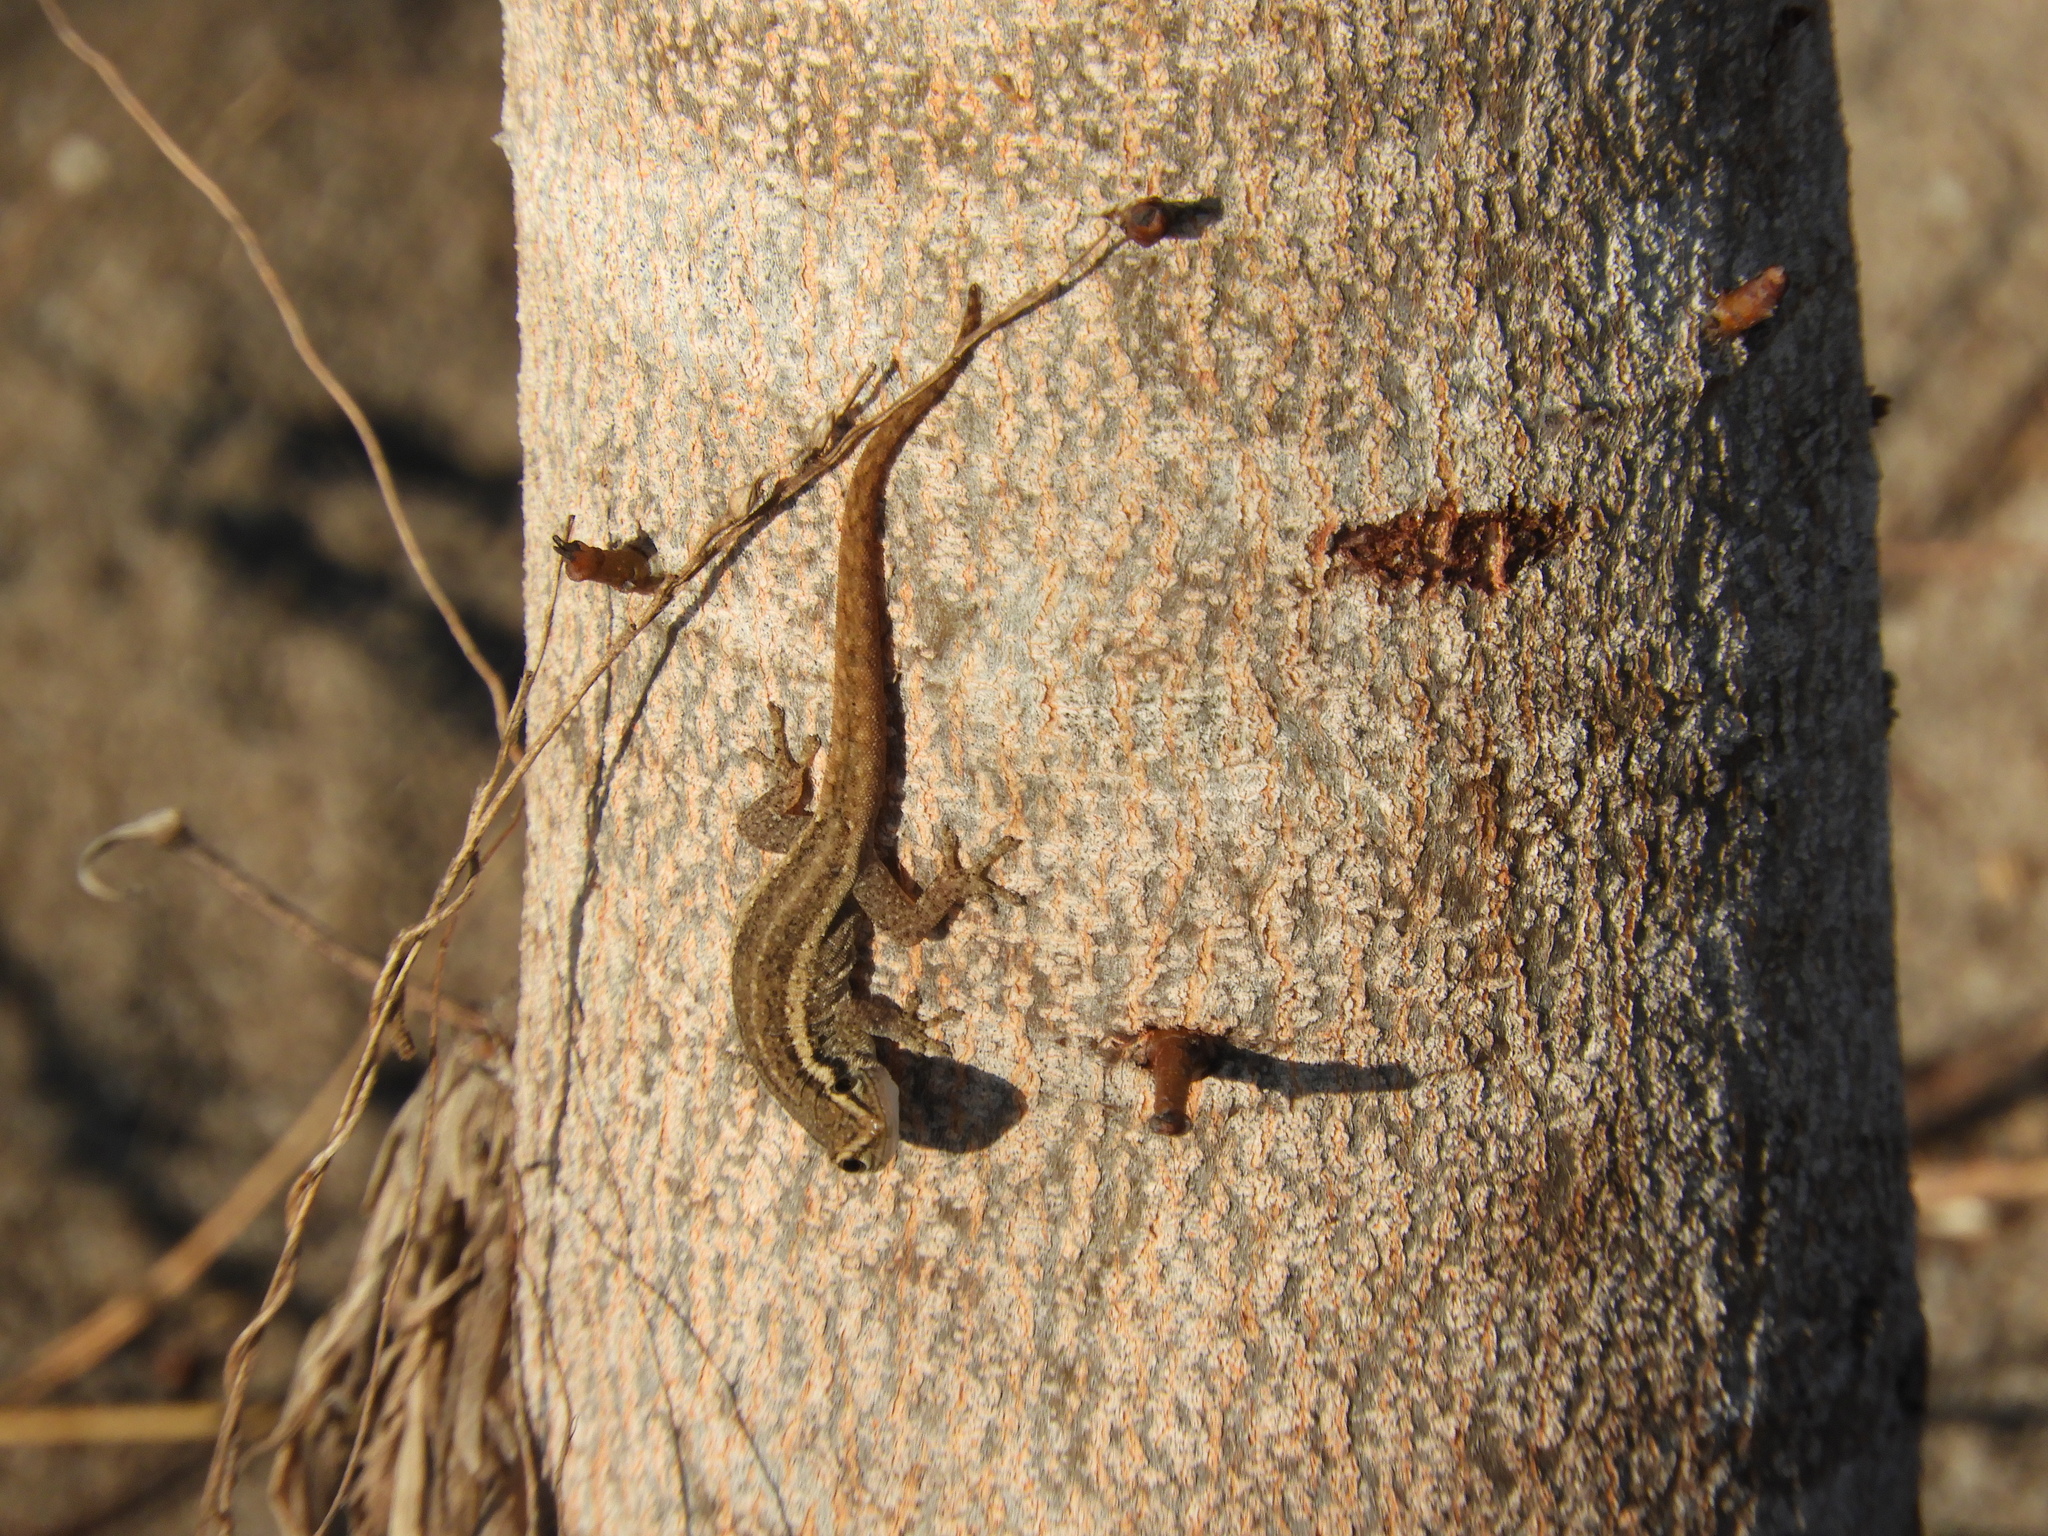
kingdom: Animalia
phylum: Chordata
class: Squamata
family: Gekkonidae
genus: Lygodactylus
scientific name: Lygodactylus capensis
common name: Cape dwarf gecko
